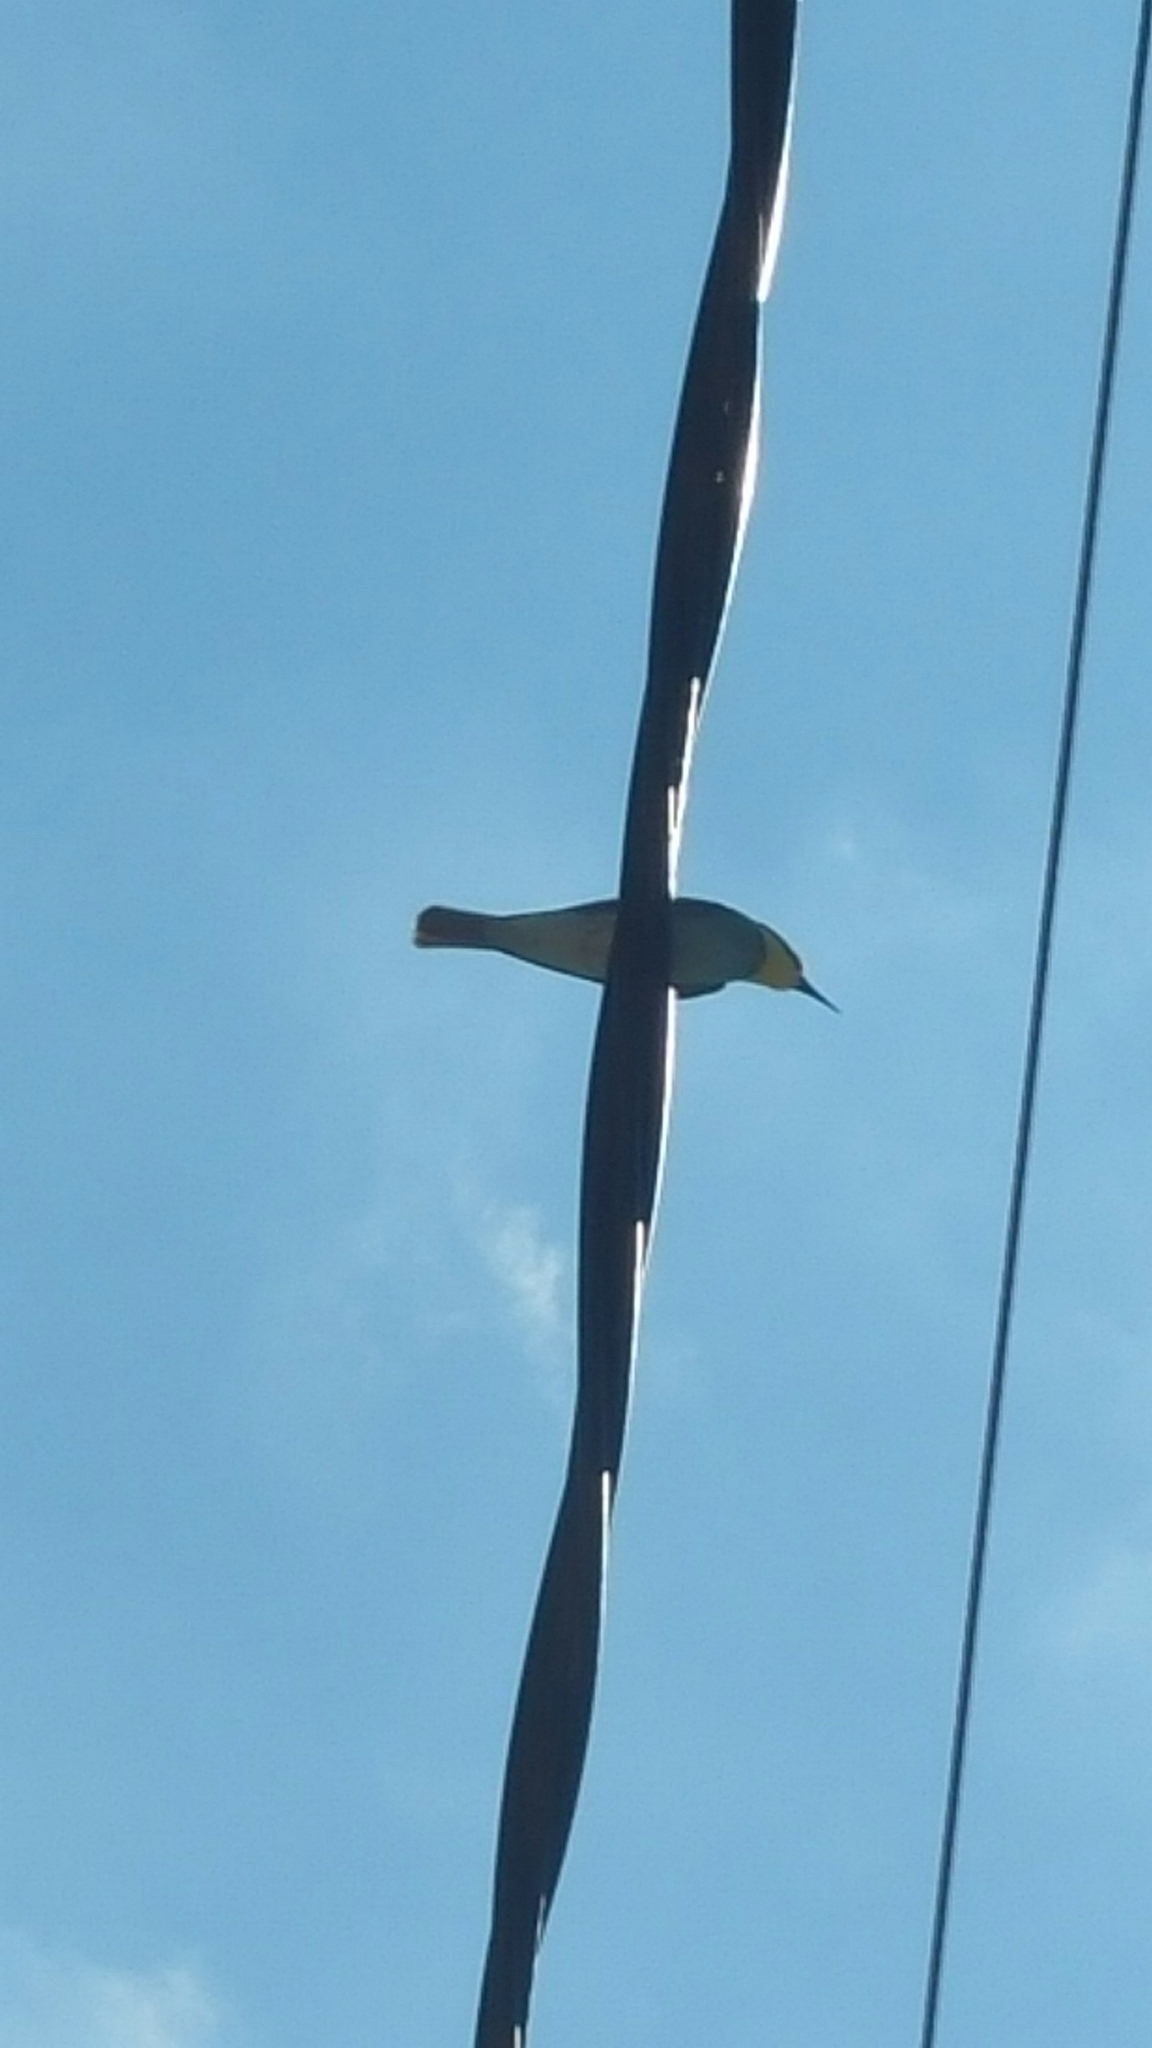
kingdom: Animalia
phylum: Chordata
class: Aves
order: Coraciiformes
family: Meropidae
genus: Merops
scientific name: Merops apiaster
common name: European bee-eater
